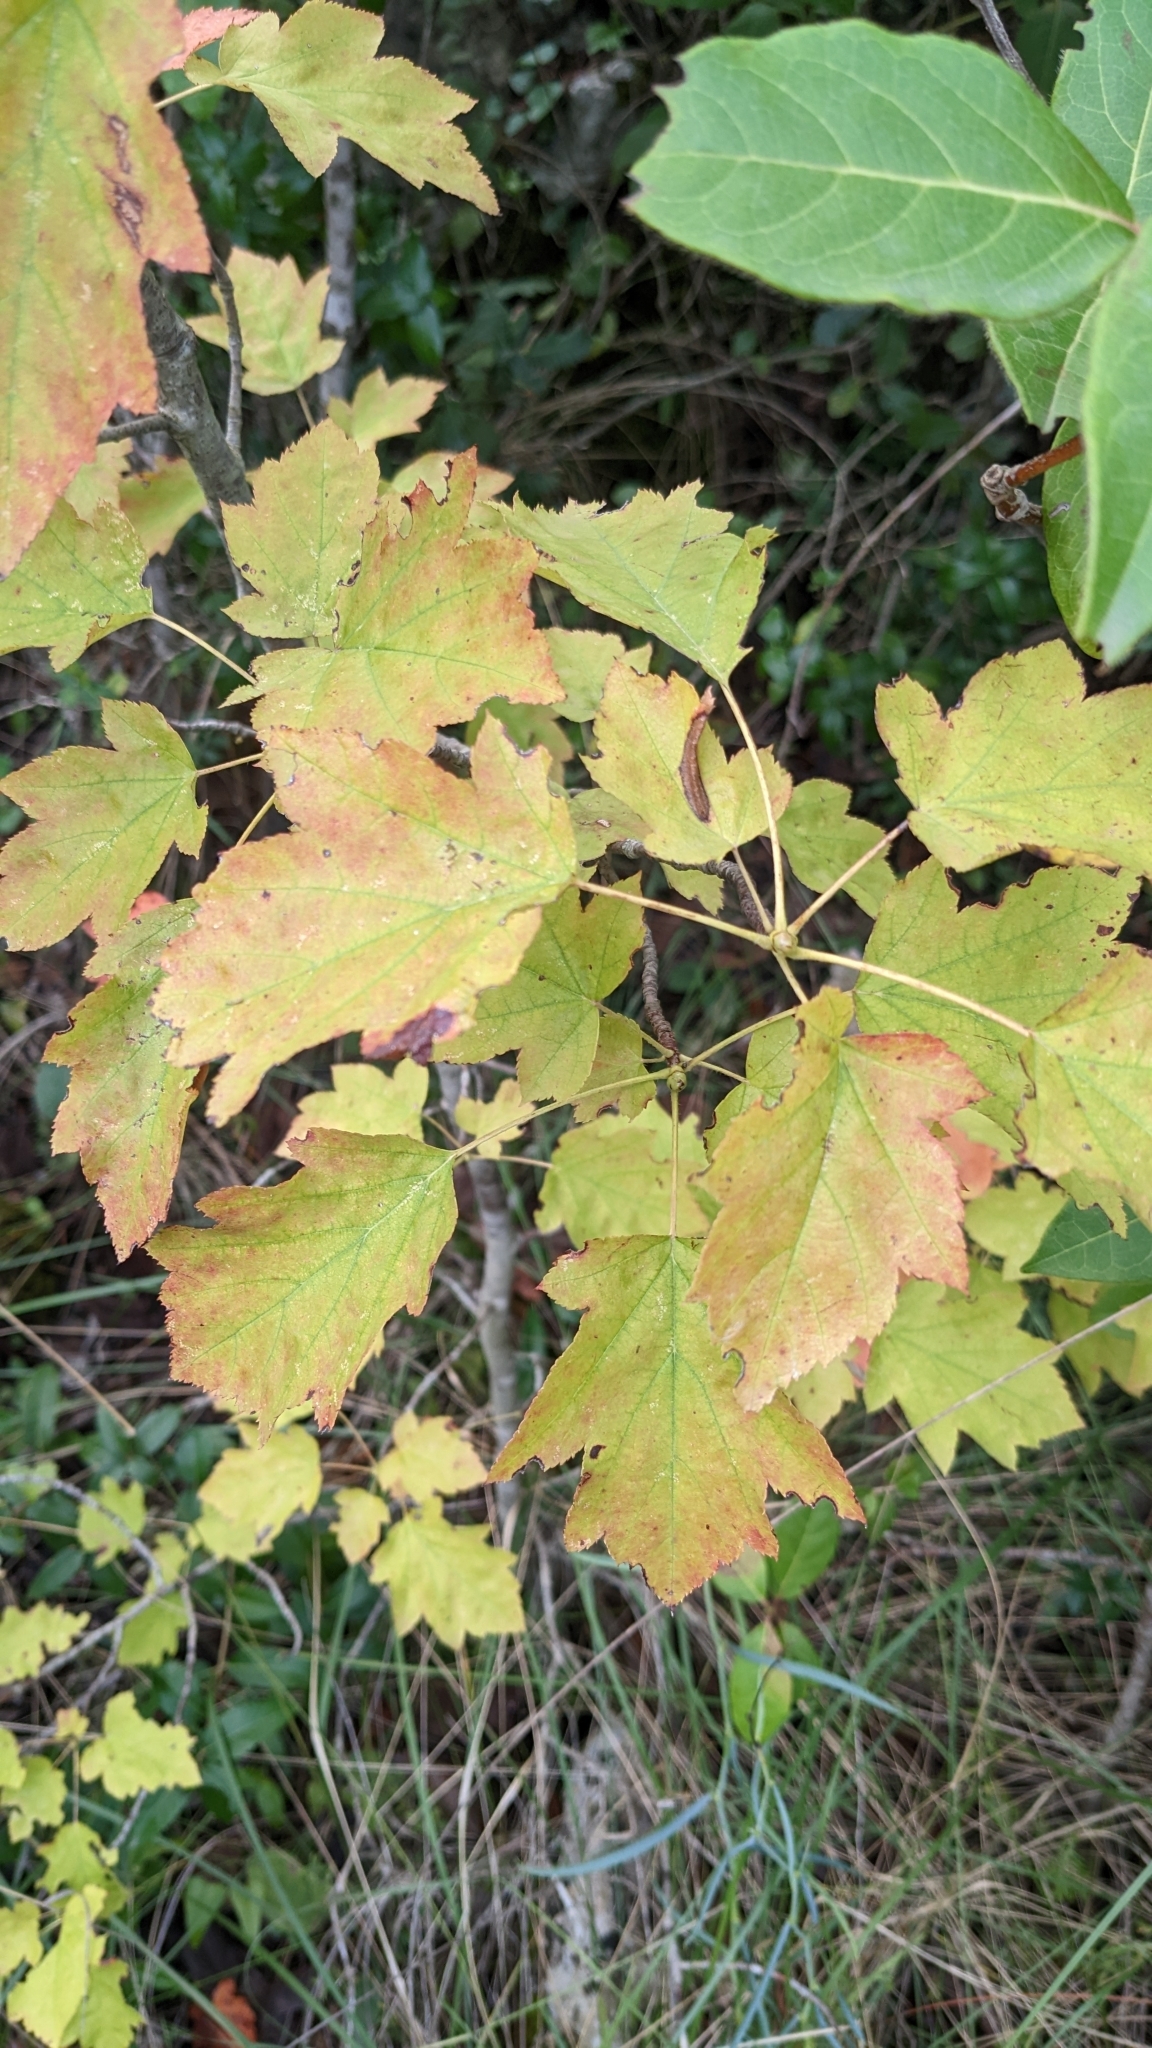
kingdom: Plantae
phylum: Tracheophyta
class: Magnoliopsida
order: Rosales
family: Rosaceae
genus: Torminalis
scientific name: Torminalis glaberrima
